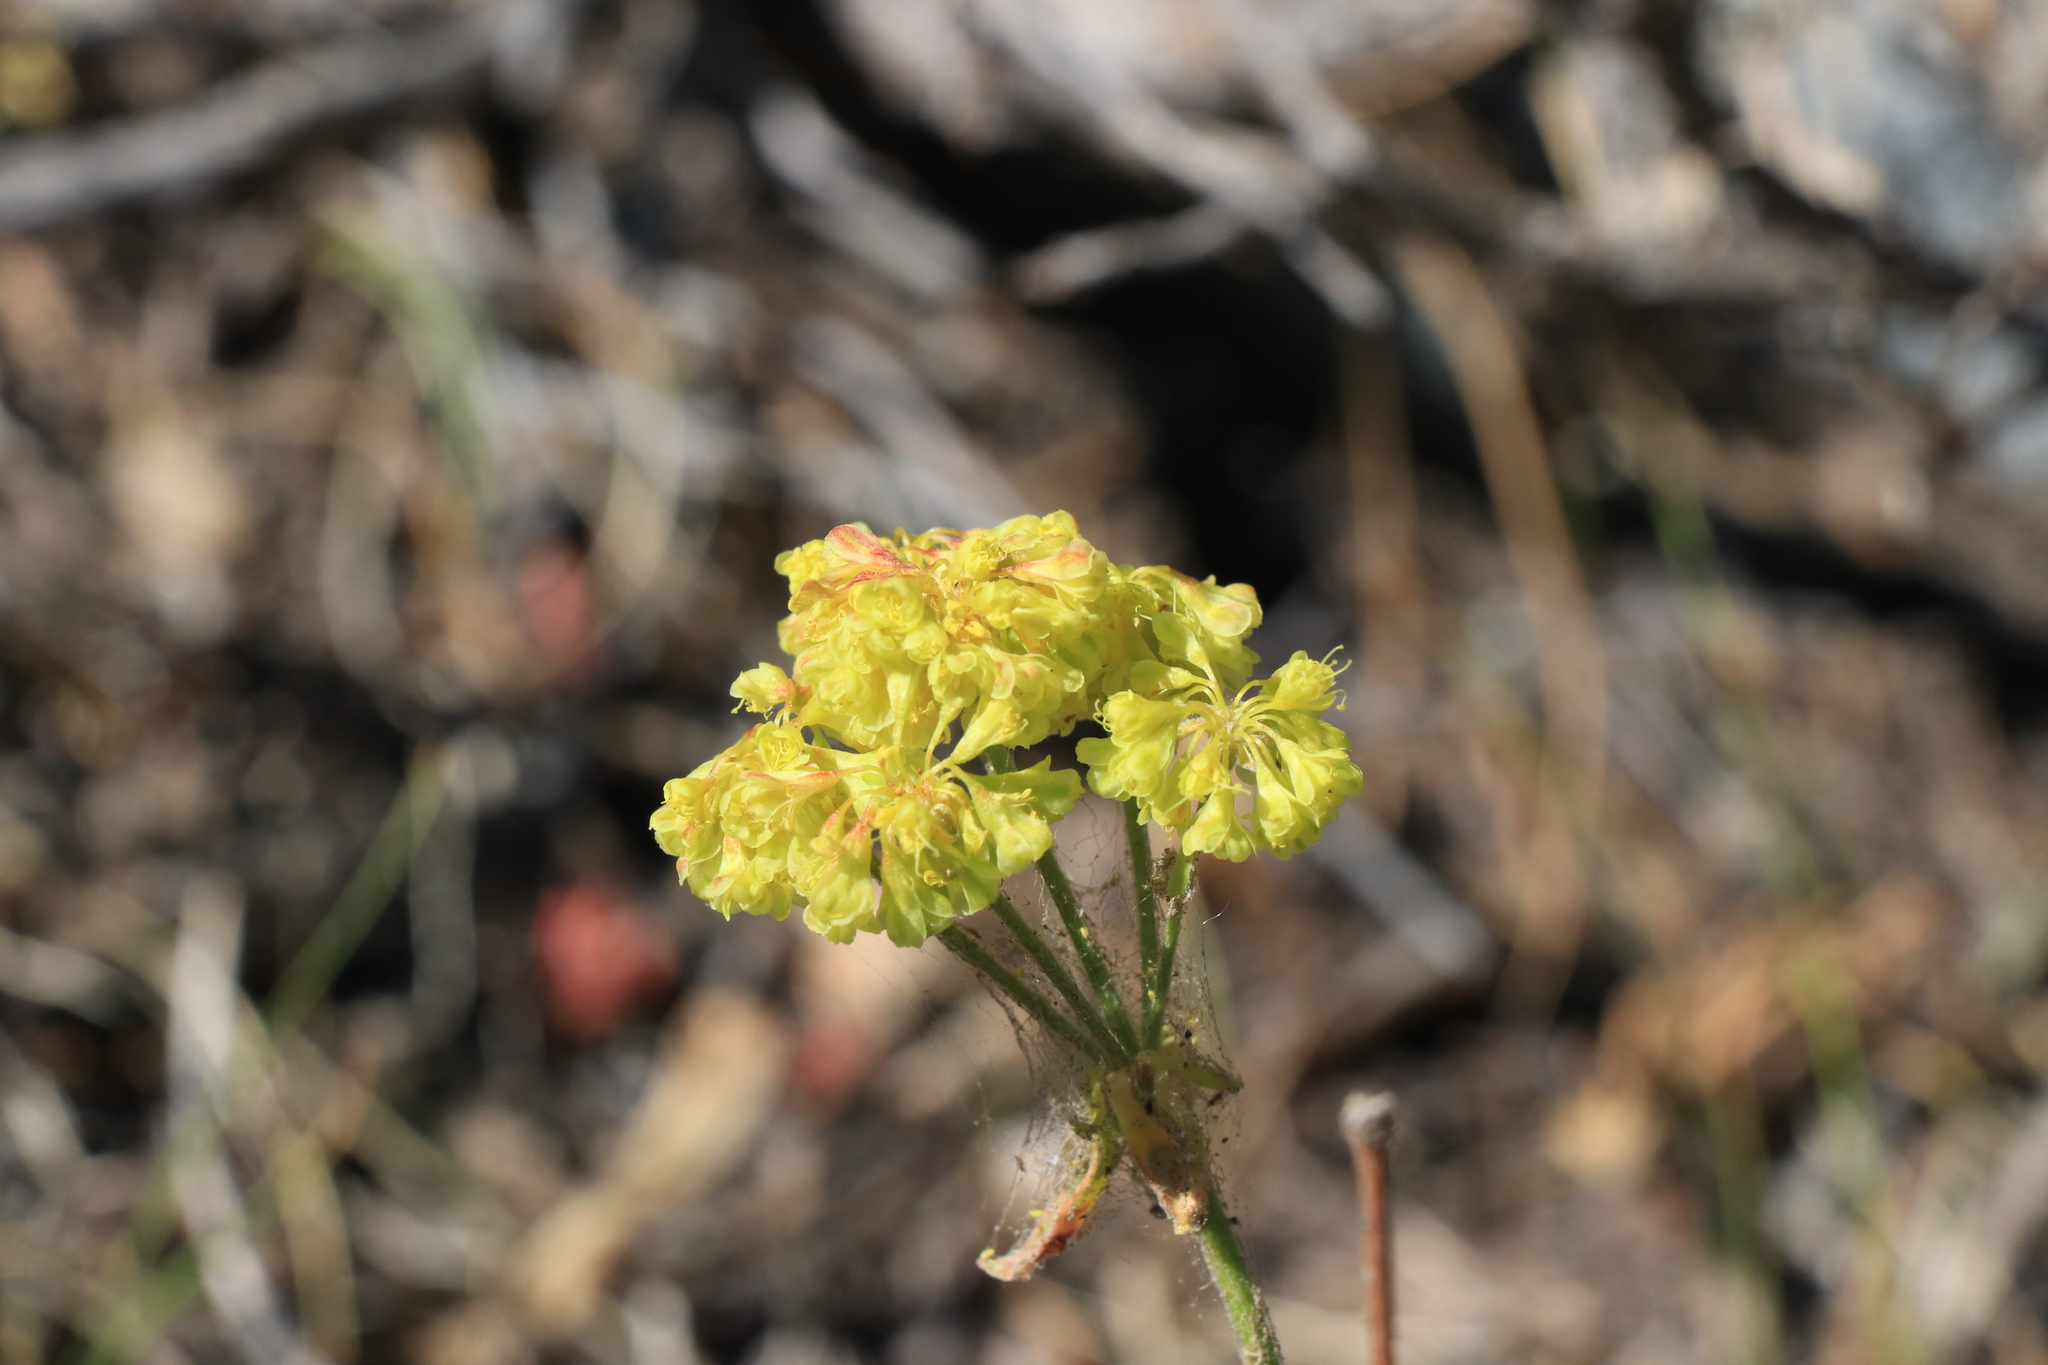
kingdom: Plantae
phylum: Tracheophyta
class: Magnoliopsida
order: Caryophyllales
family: Polygonaceae
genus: Eriogonum
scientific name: Eriogonum umbellatum
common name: Sulfur-buckwheat
